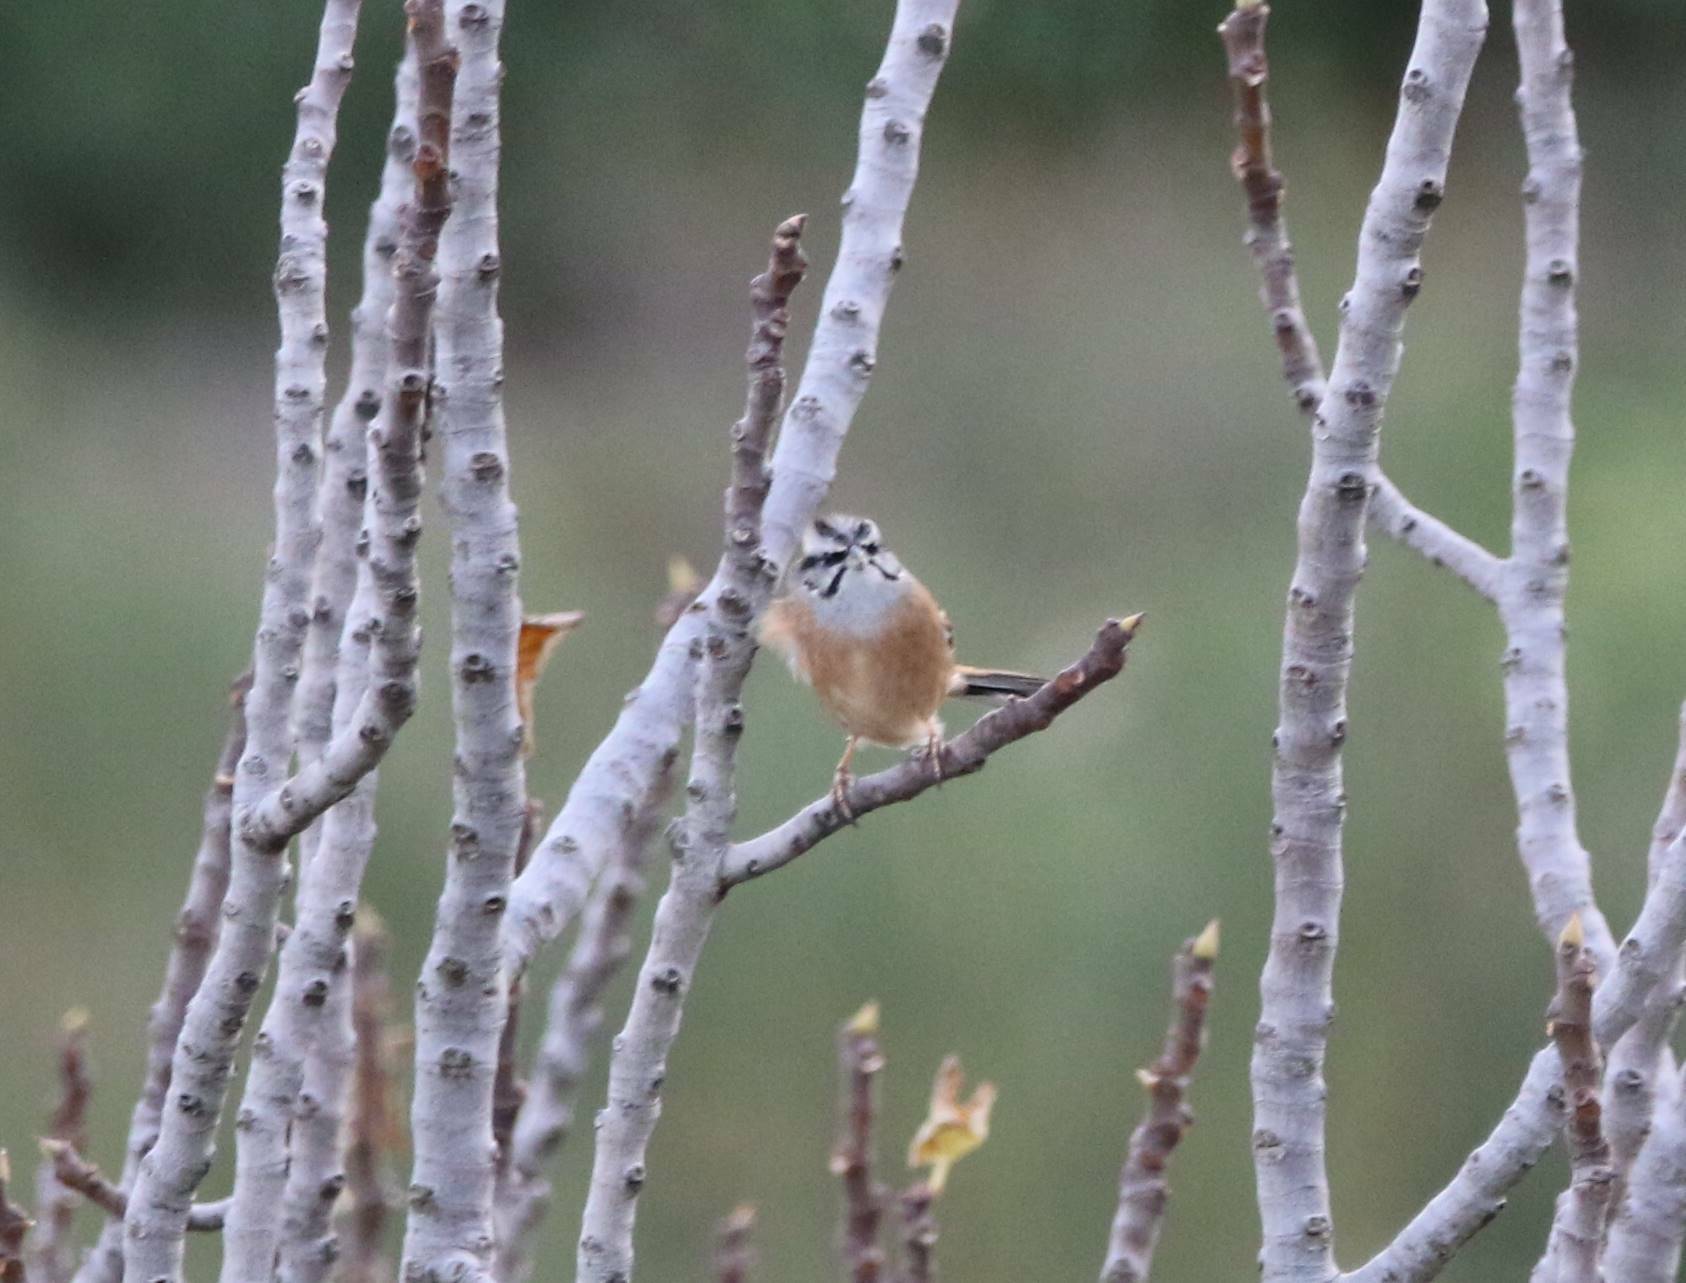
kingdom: Animalia
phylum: Chordata
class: Aves
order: Passeriformes
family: Emberizidae
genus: Emberiza
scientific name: Emberiza cia
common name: Rock bunting
